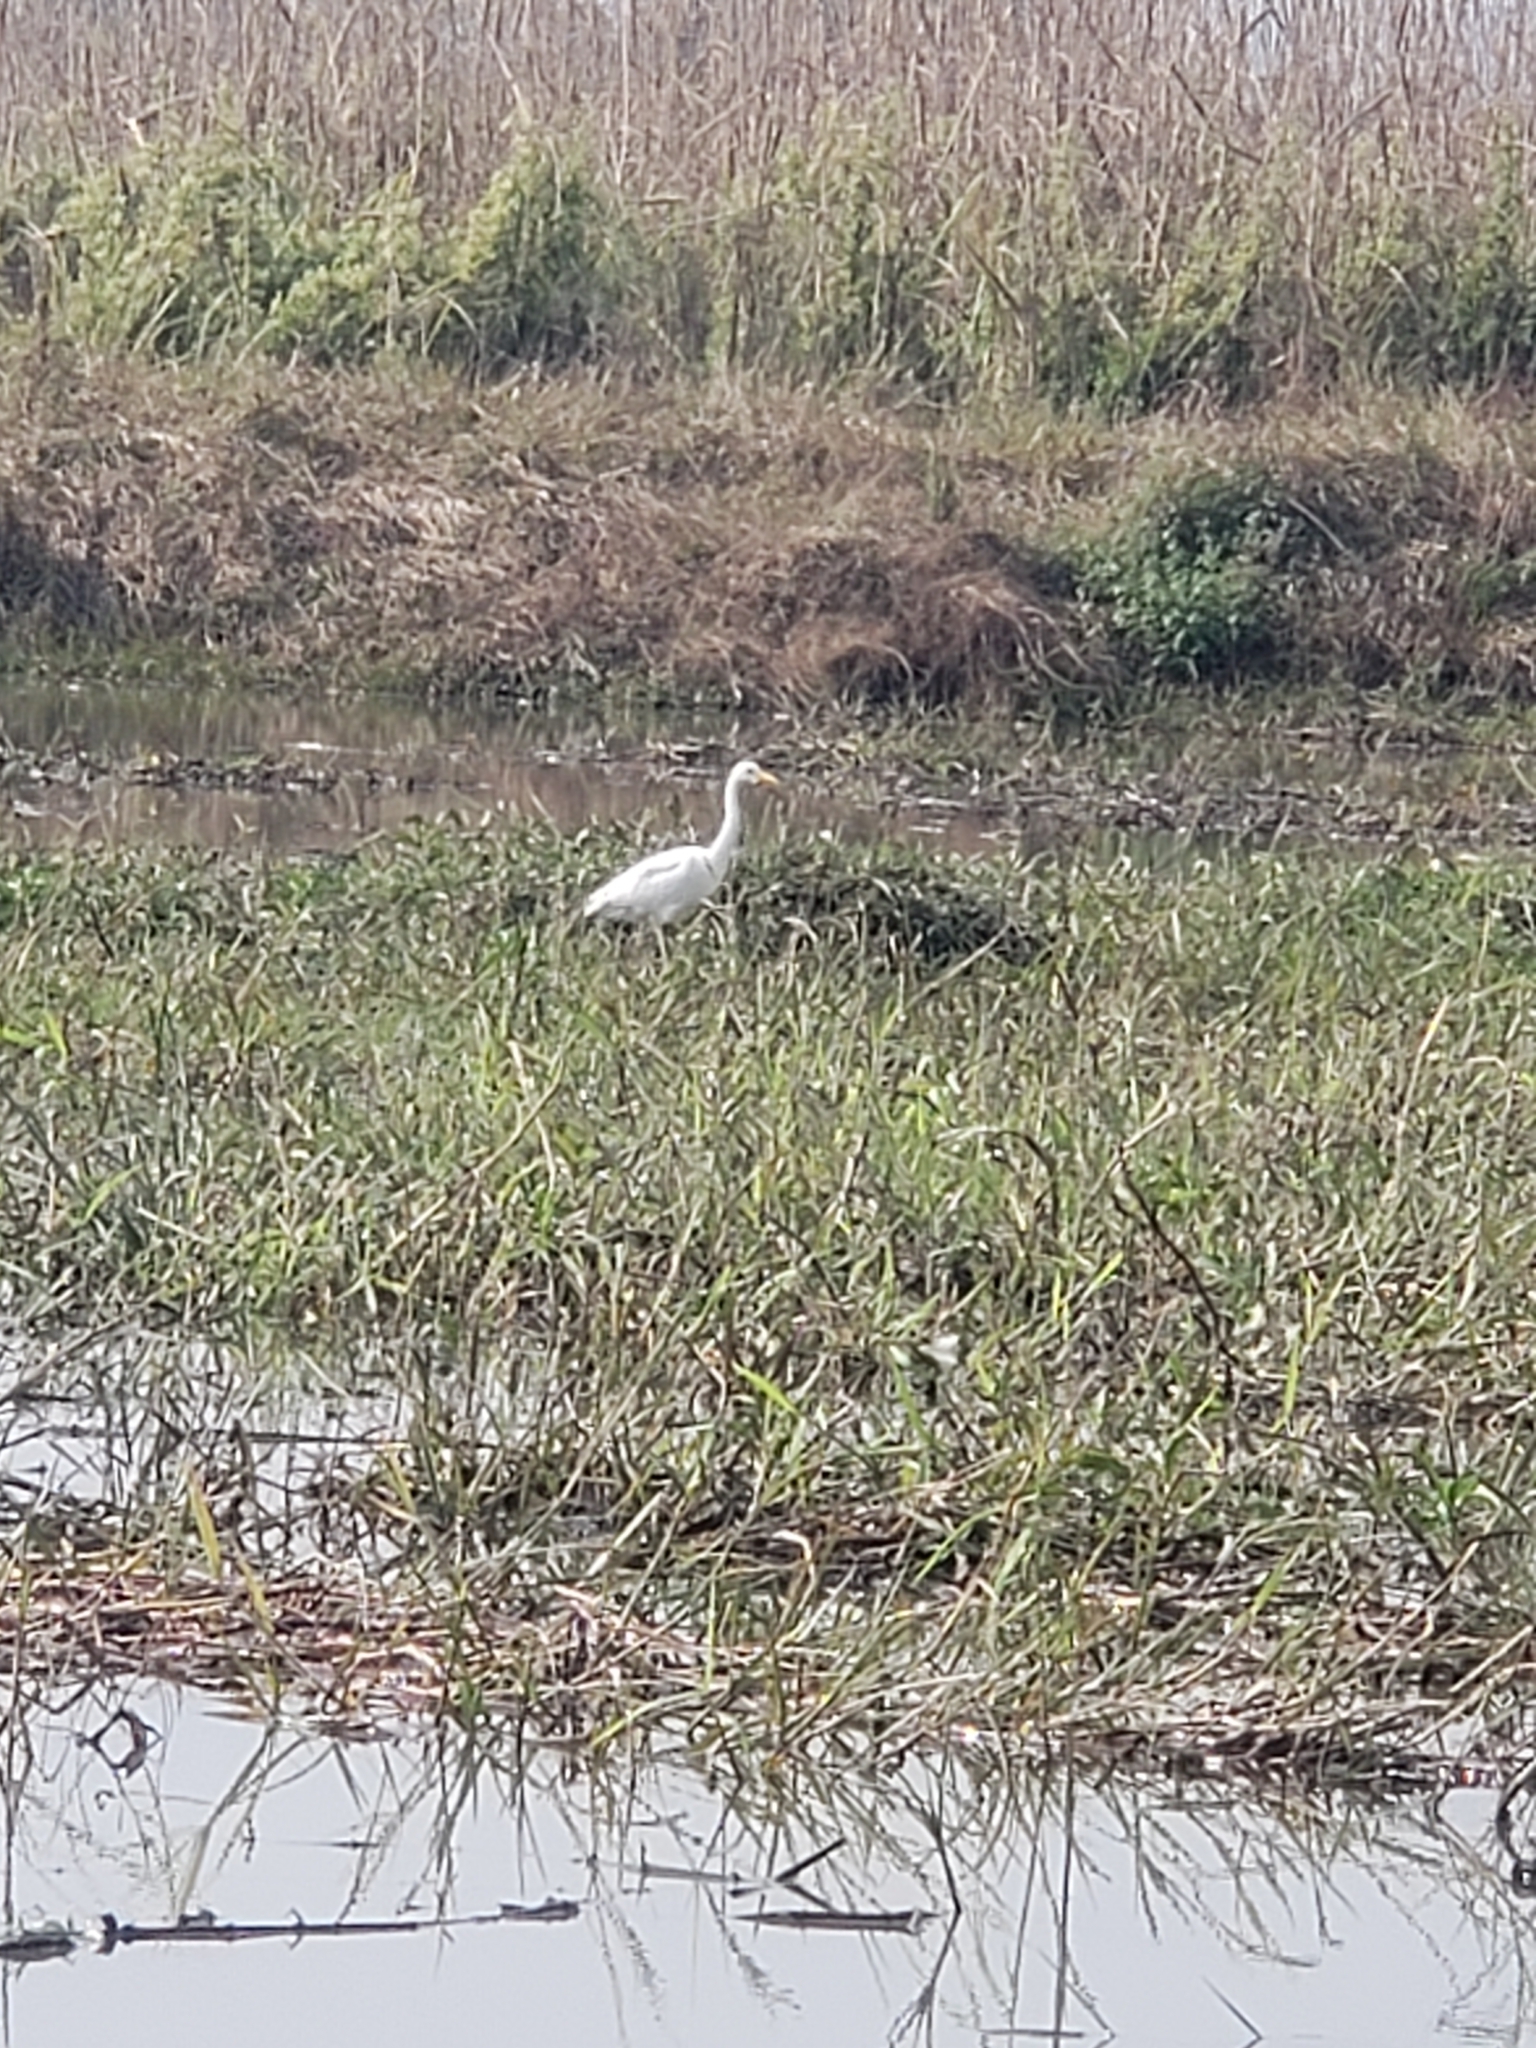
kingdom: Animalia
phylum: Chordata
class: Aves
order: Pelecaniformes
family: Ardeidae
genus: Egretta
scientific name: Egretta intermedia
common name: Intermediate egret
